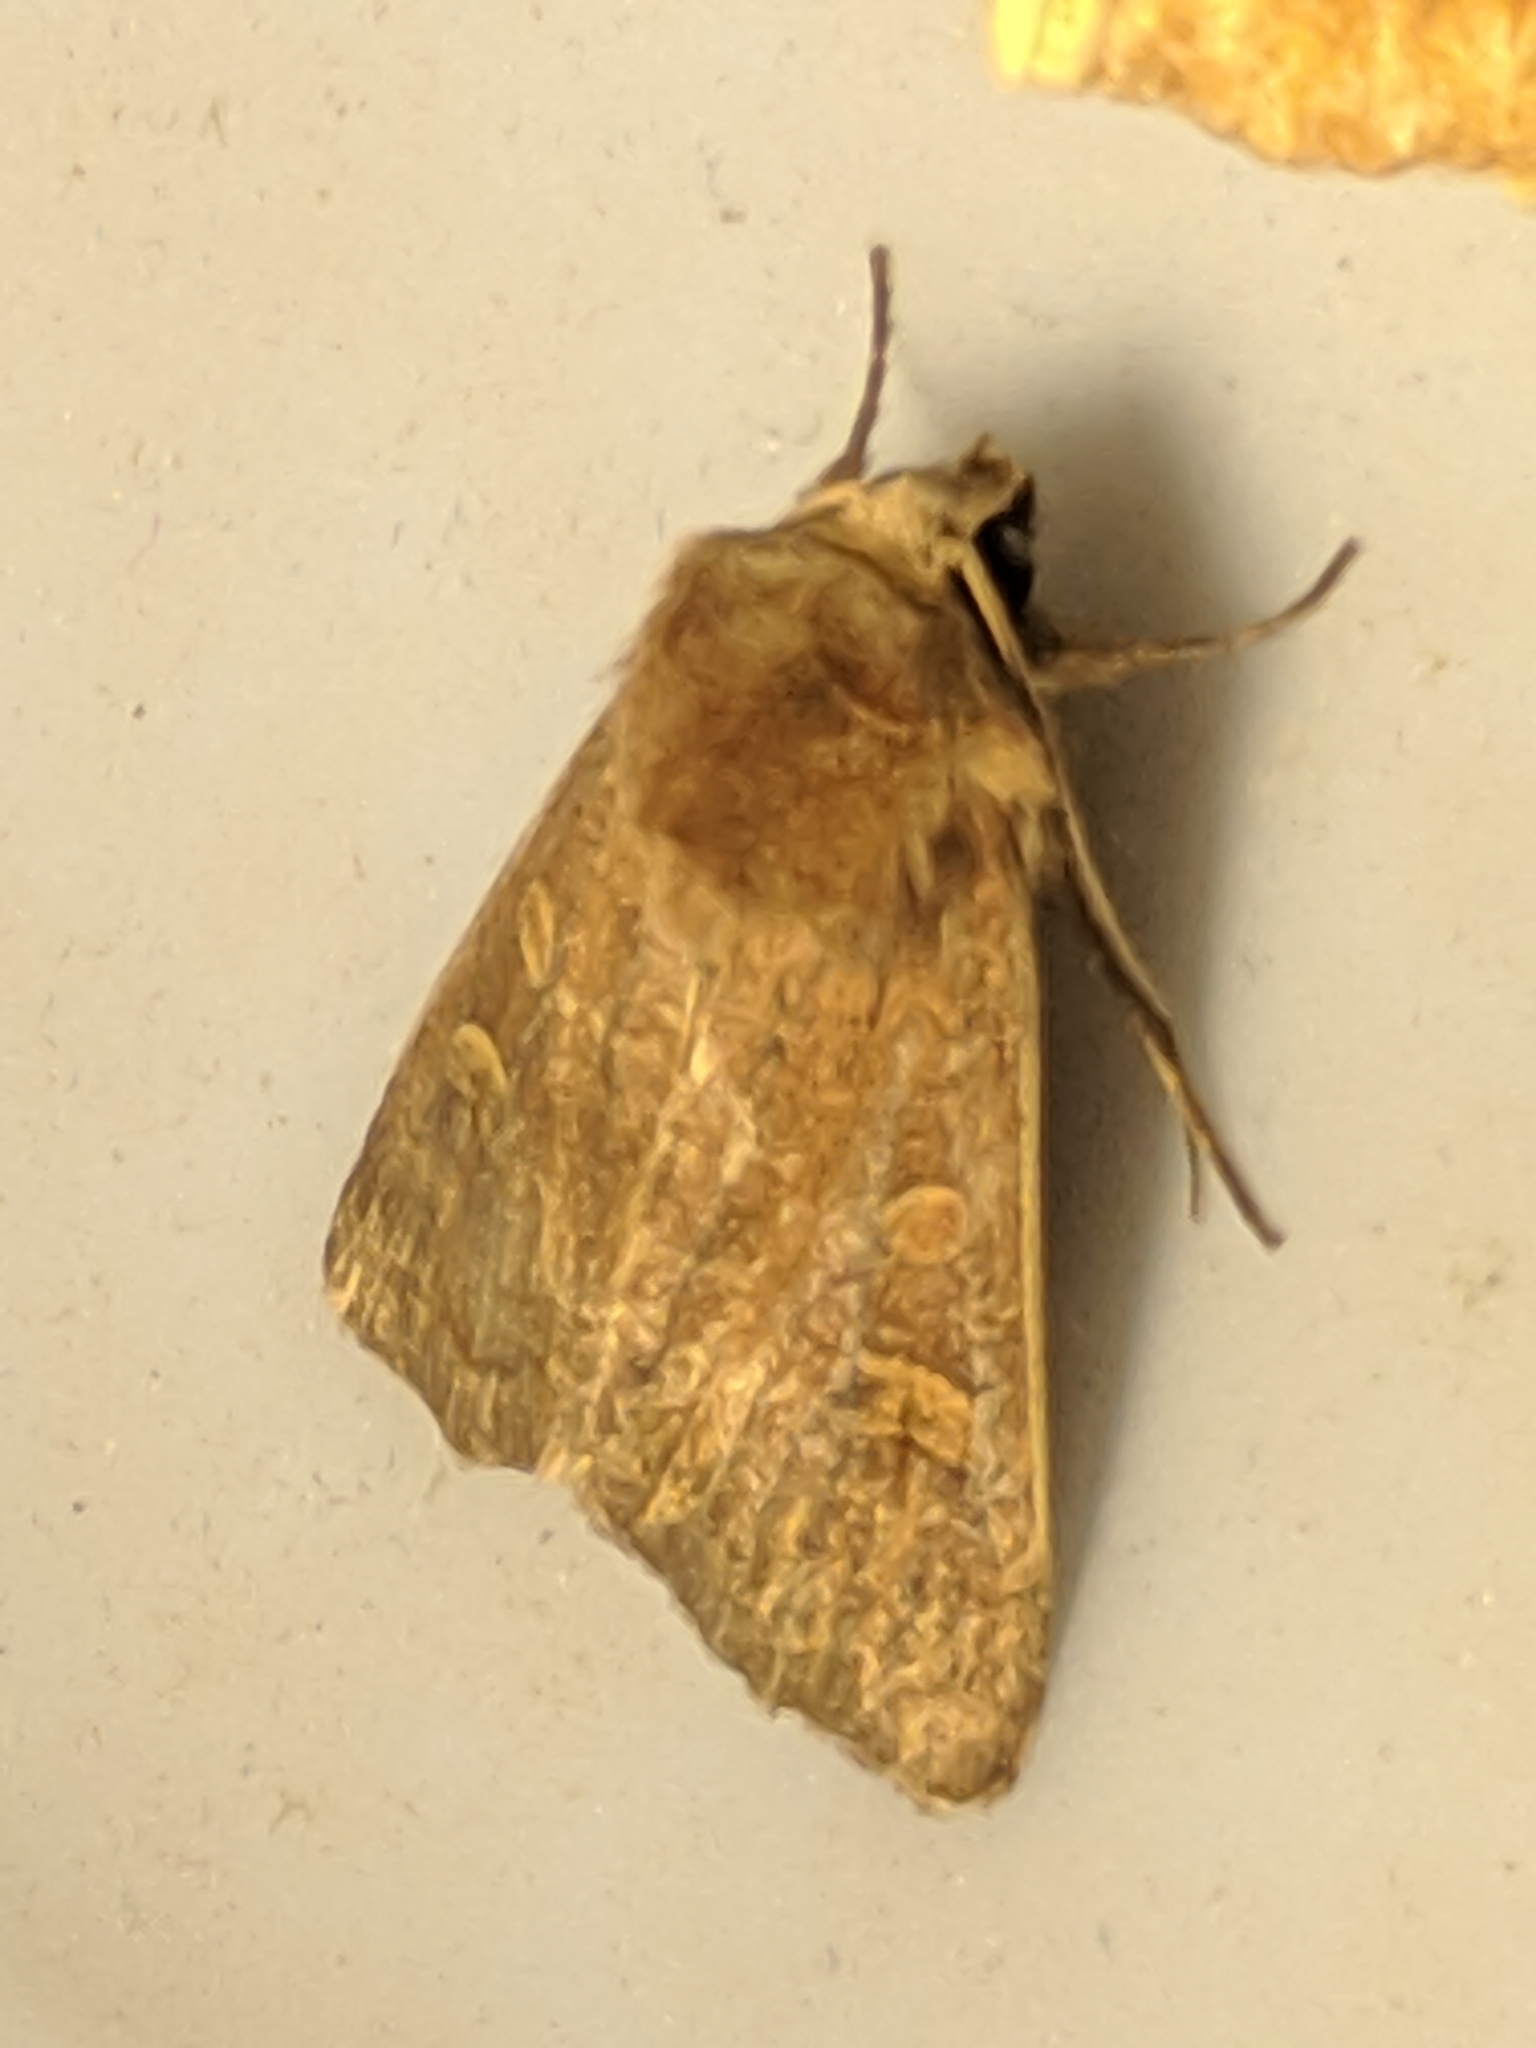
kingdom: Animalia
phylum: Arthropoda
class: Insecta
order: Lepidoptera
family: Noctuidae
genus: Xestia
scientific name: Xestia xanthographa
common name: Square-spot rustic
